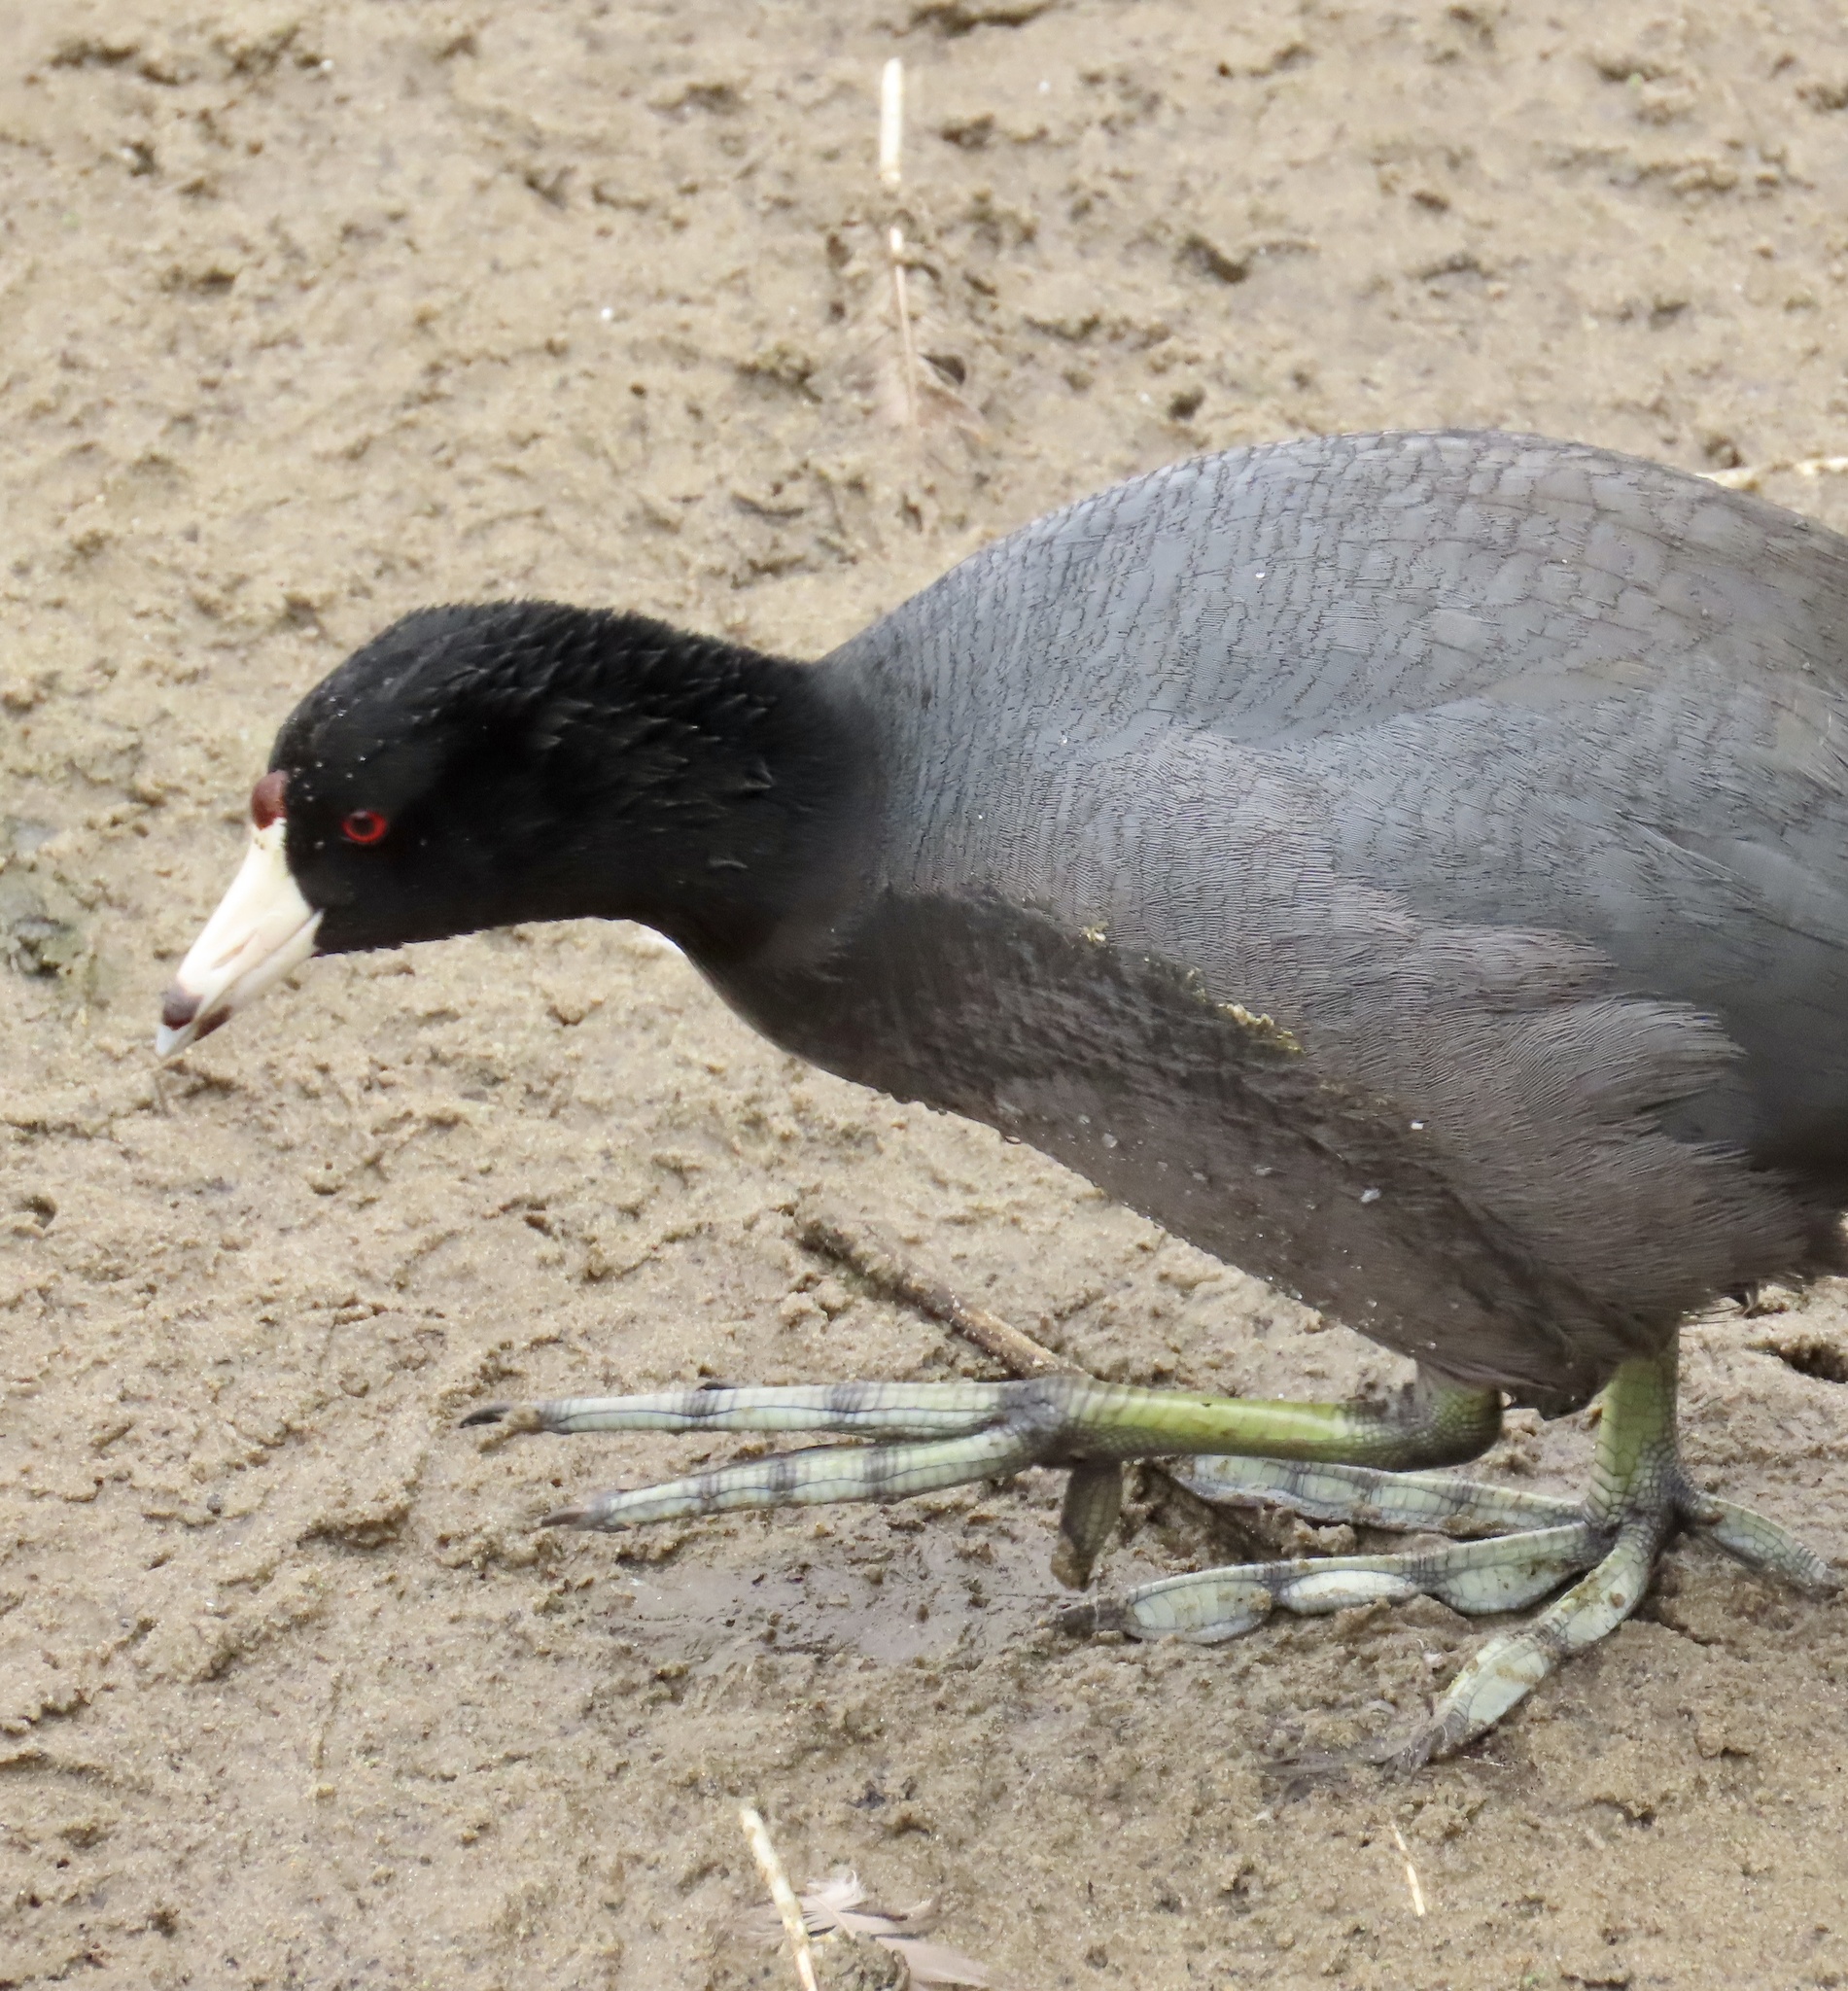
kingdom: Animalia
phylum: Chordata
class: Aves
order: Gruiformes
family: Rallidae
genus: Fulica
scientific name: Fulica americana
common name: American coot
